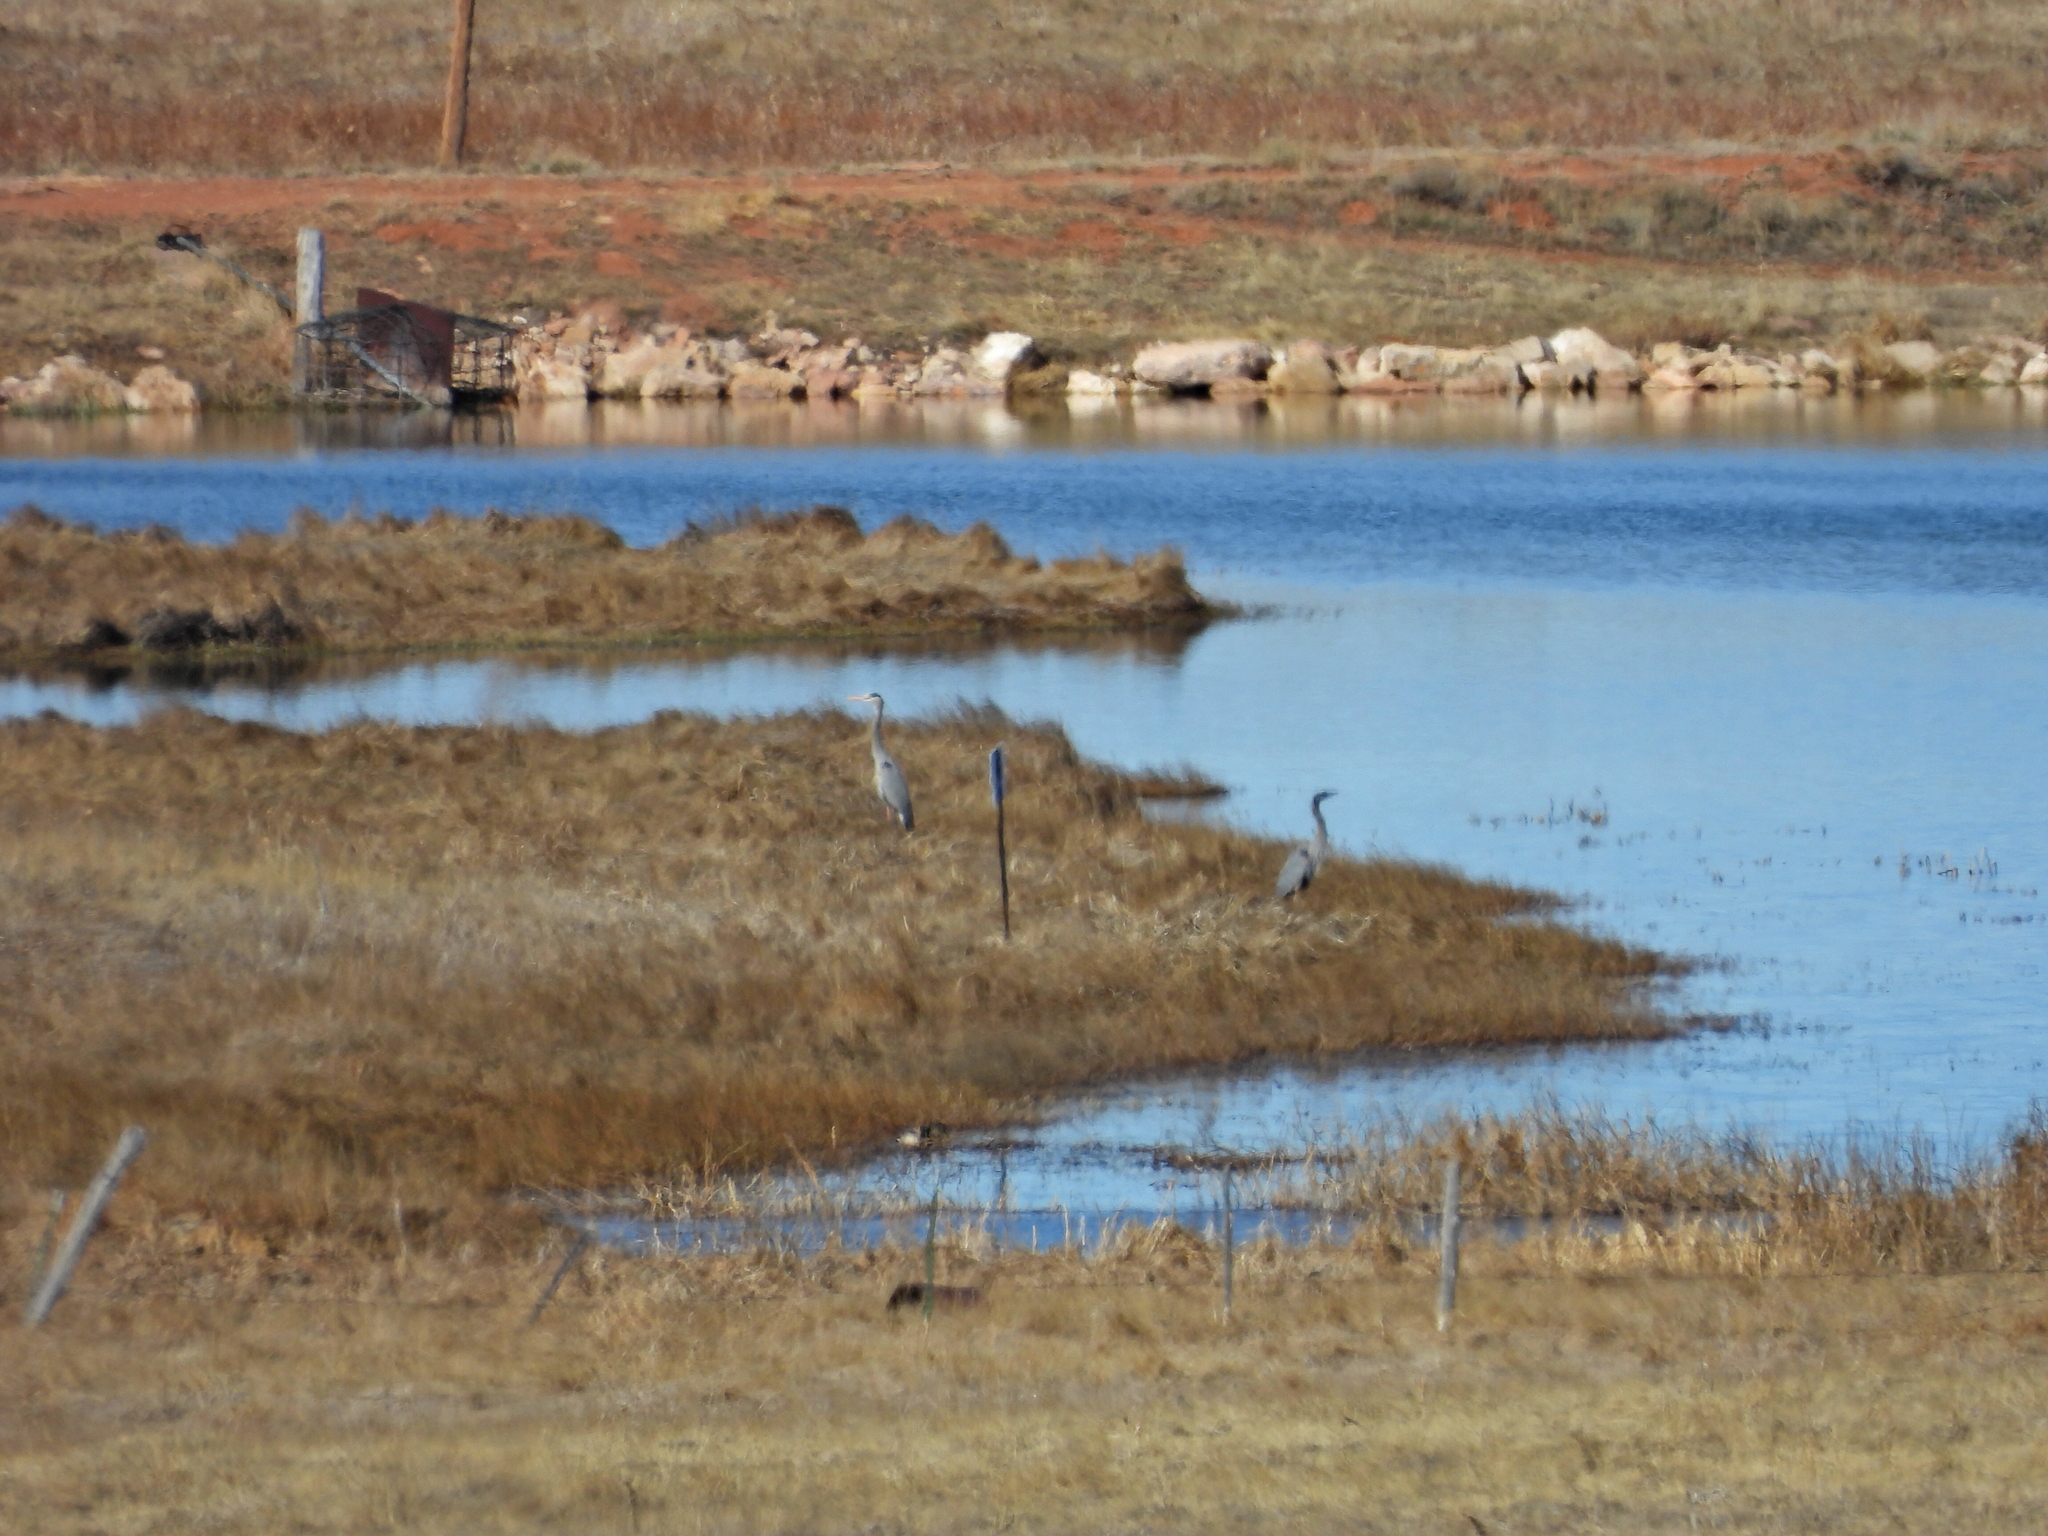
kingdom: Animalia
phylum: Chordata
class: Aves
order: Pelecaniformes
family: Ardeidae
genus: Ardea
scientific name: Ardea herodias
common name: Great blue heron
